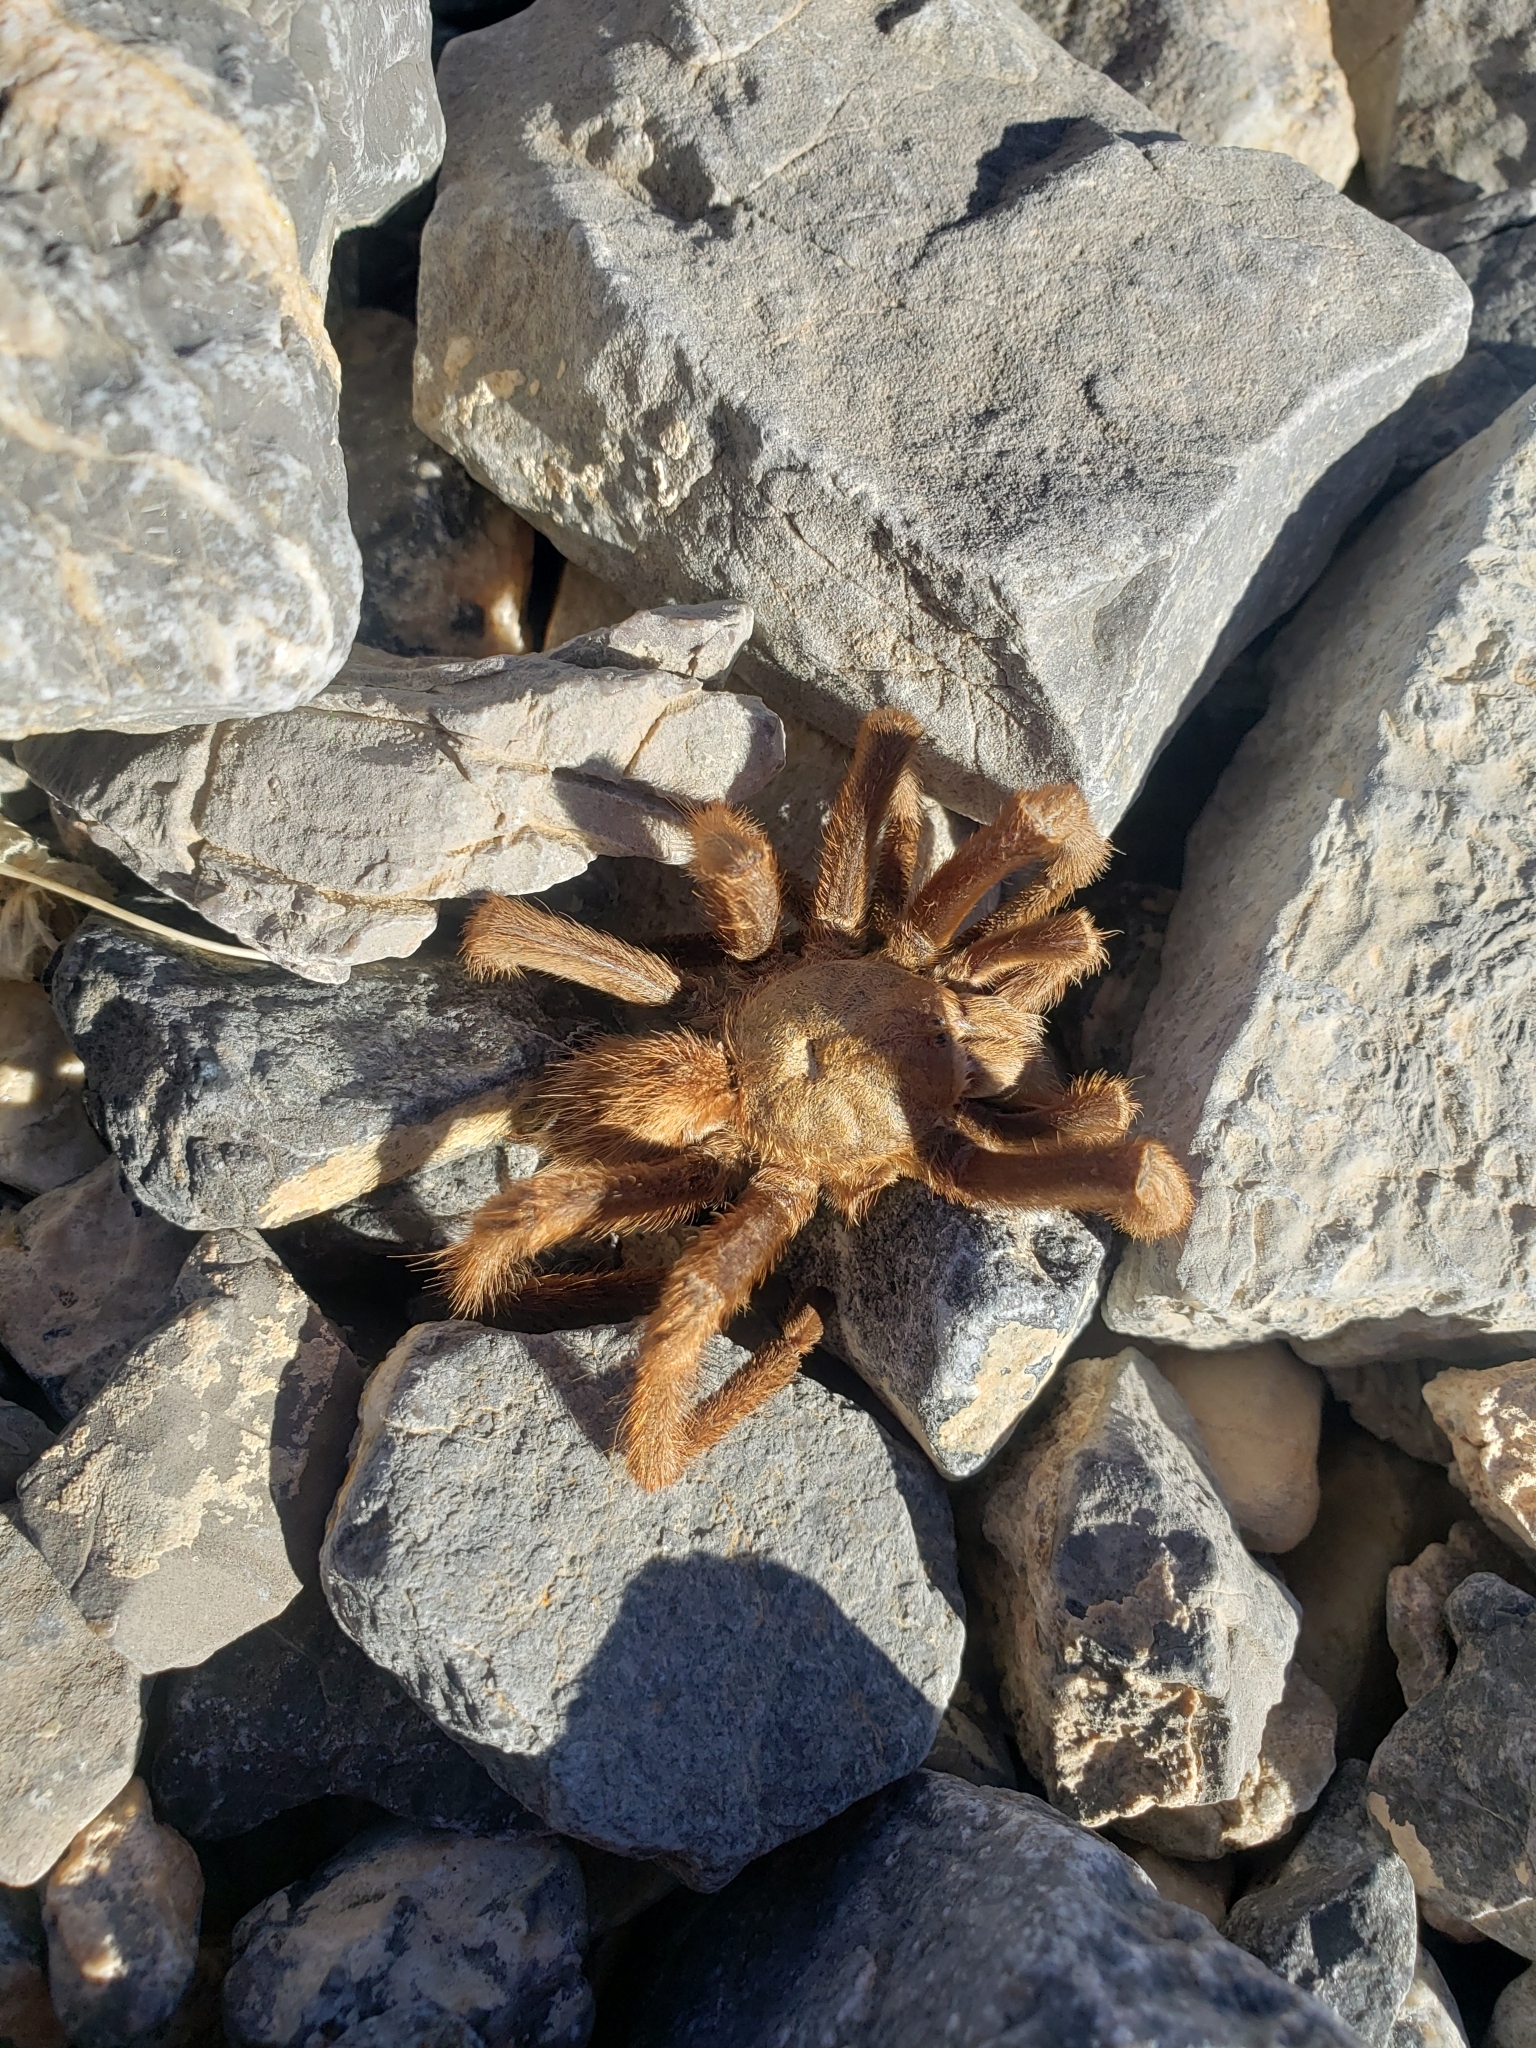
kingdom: Animalia
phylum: Arthropoda
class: Arachnida
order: Araneae
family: Theraphosidae
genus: Aphonopelma
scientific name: Aphonopelma iodius
